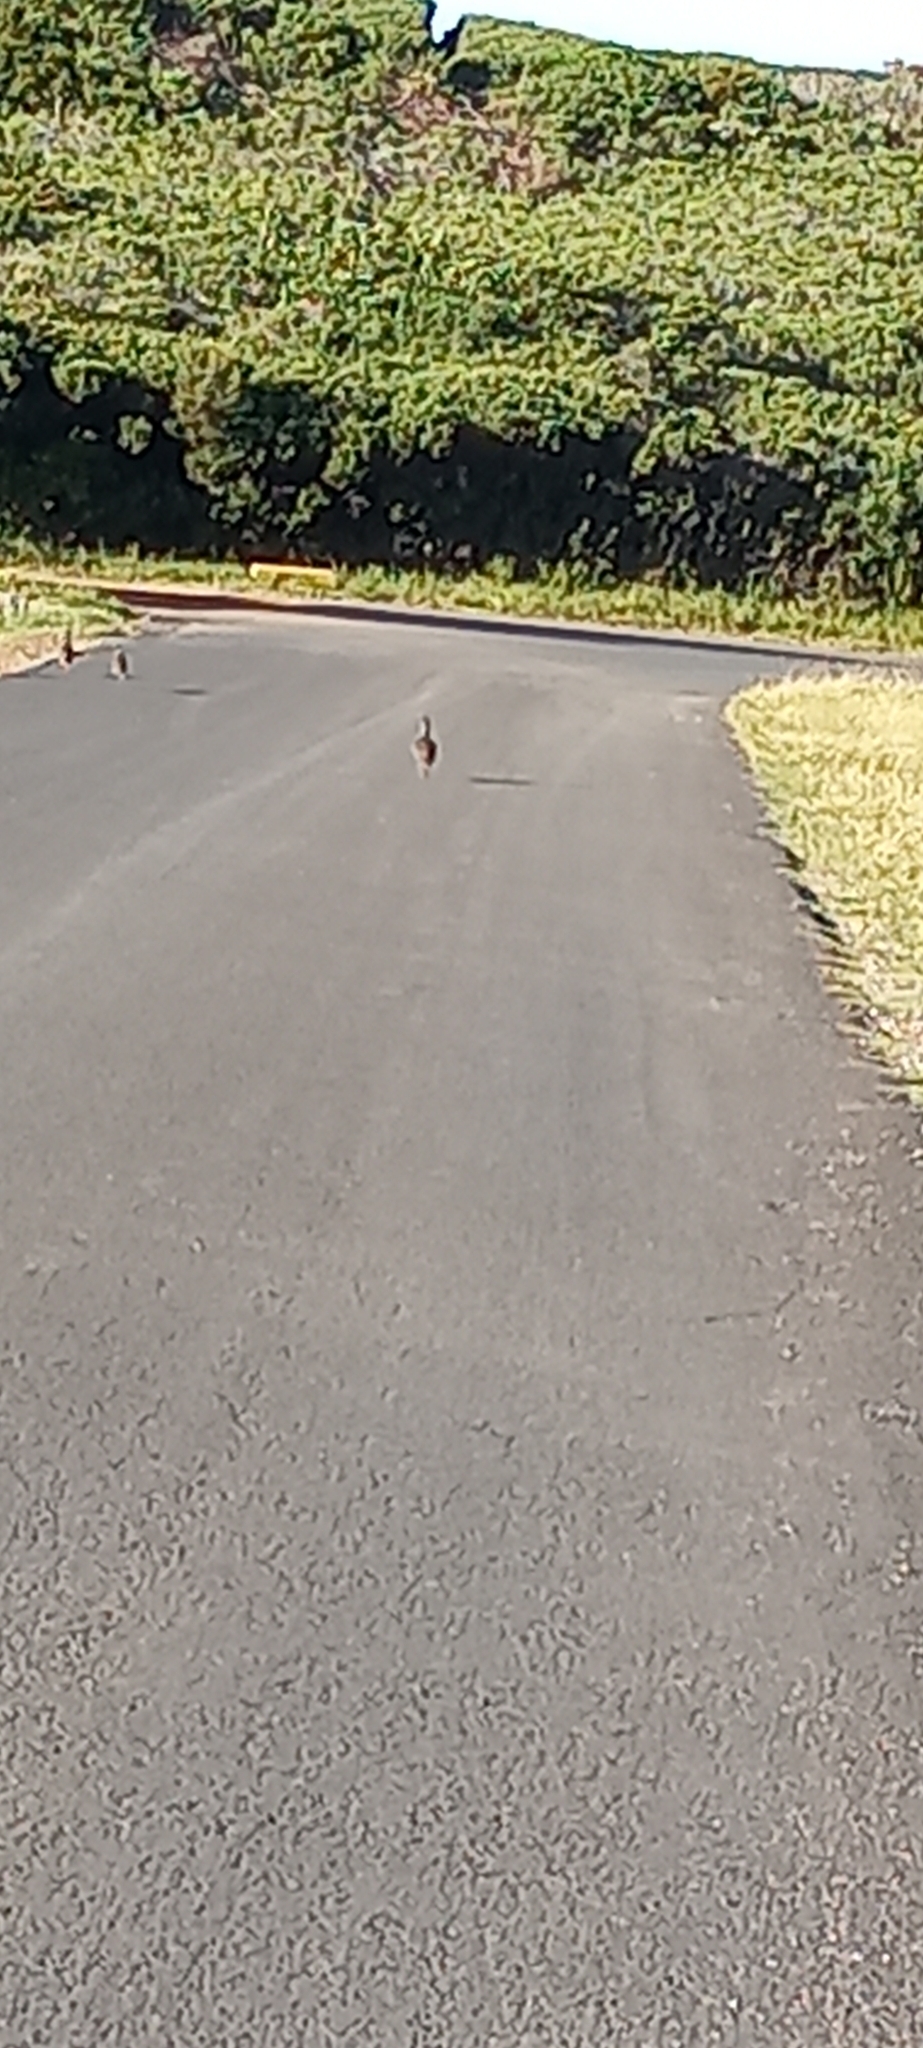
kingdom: Animalia
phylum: Chordata
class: Aves
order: Galliformes
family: Phasianidae
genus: Pternistis
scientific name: Pternistis capensis
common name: Cape spurfowl
